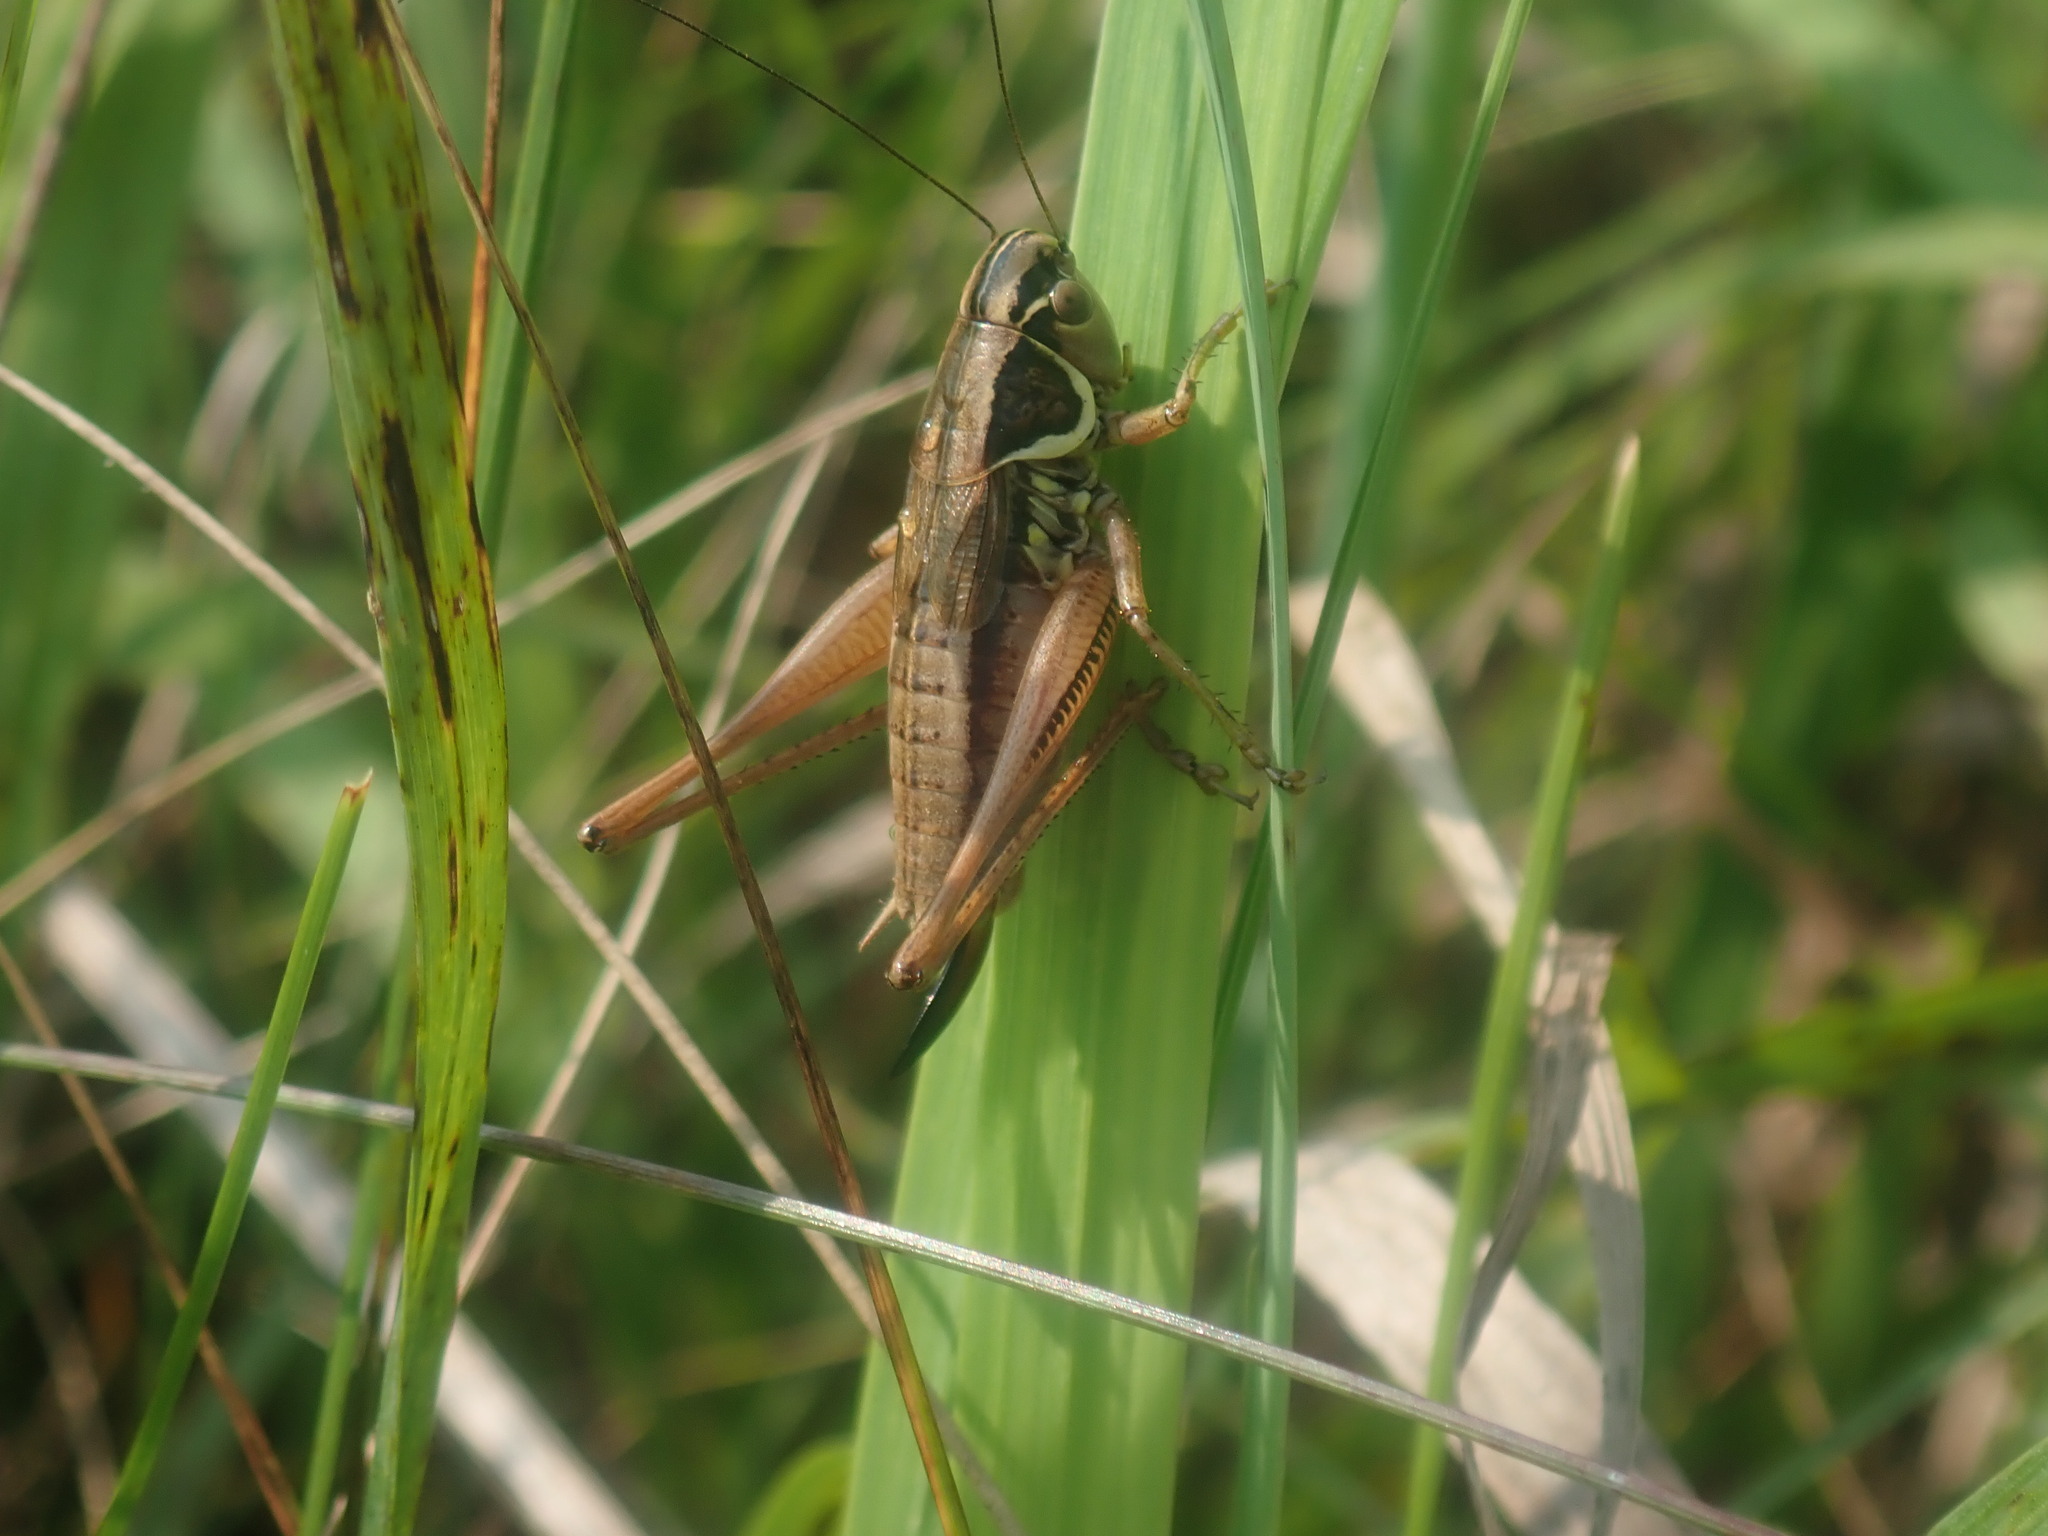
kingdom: Animalia
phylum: Arthropoda
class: Insecta
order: Orthoptera
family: Tettigoniidae
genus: Roeseliana
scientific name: Roeseliana roeselii
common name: Roesel's bush cricket
